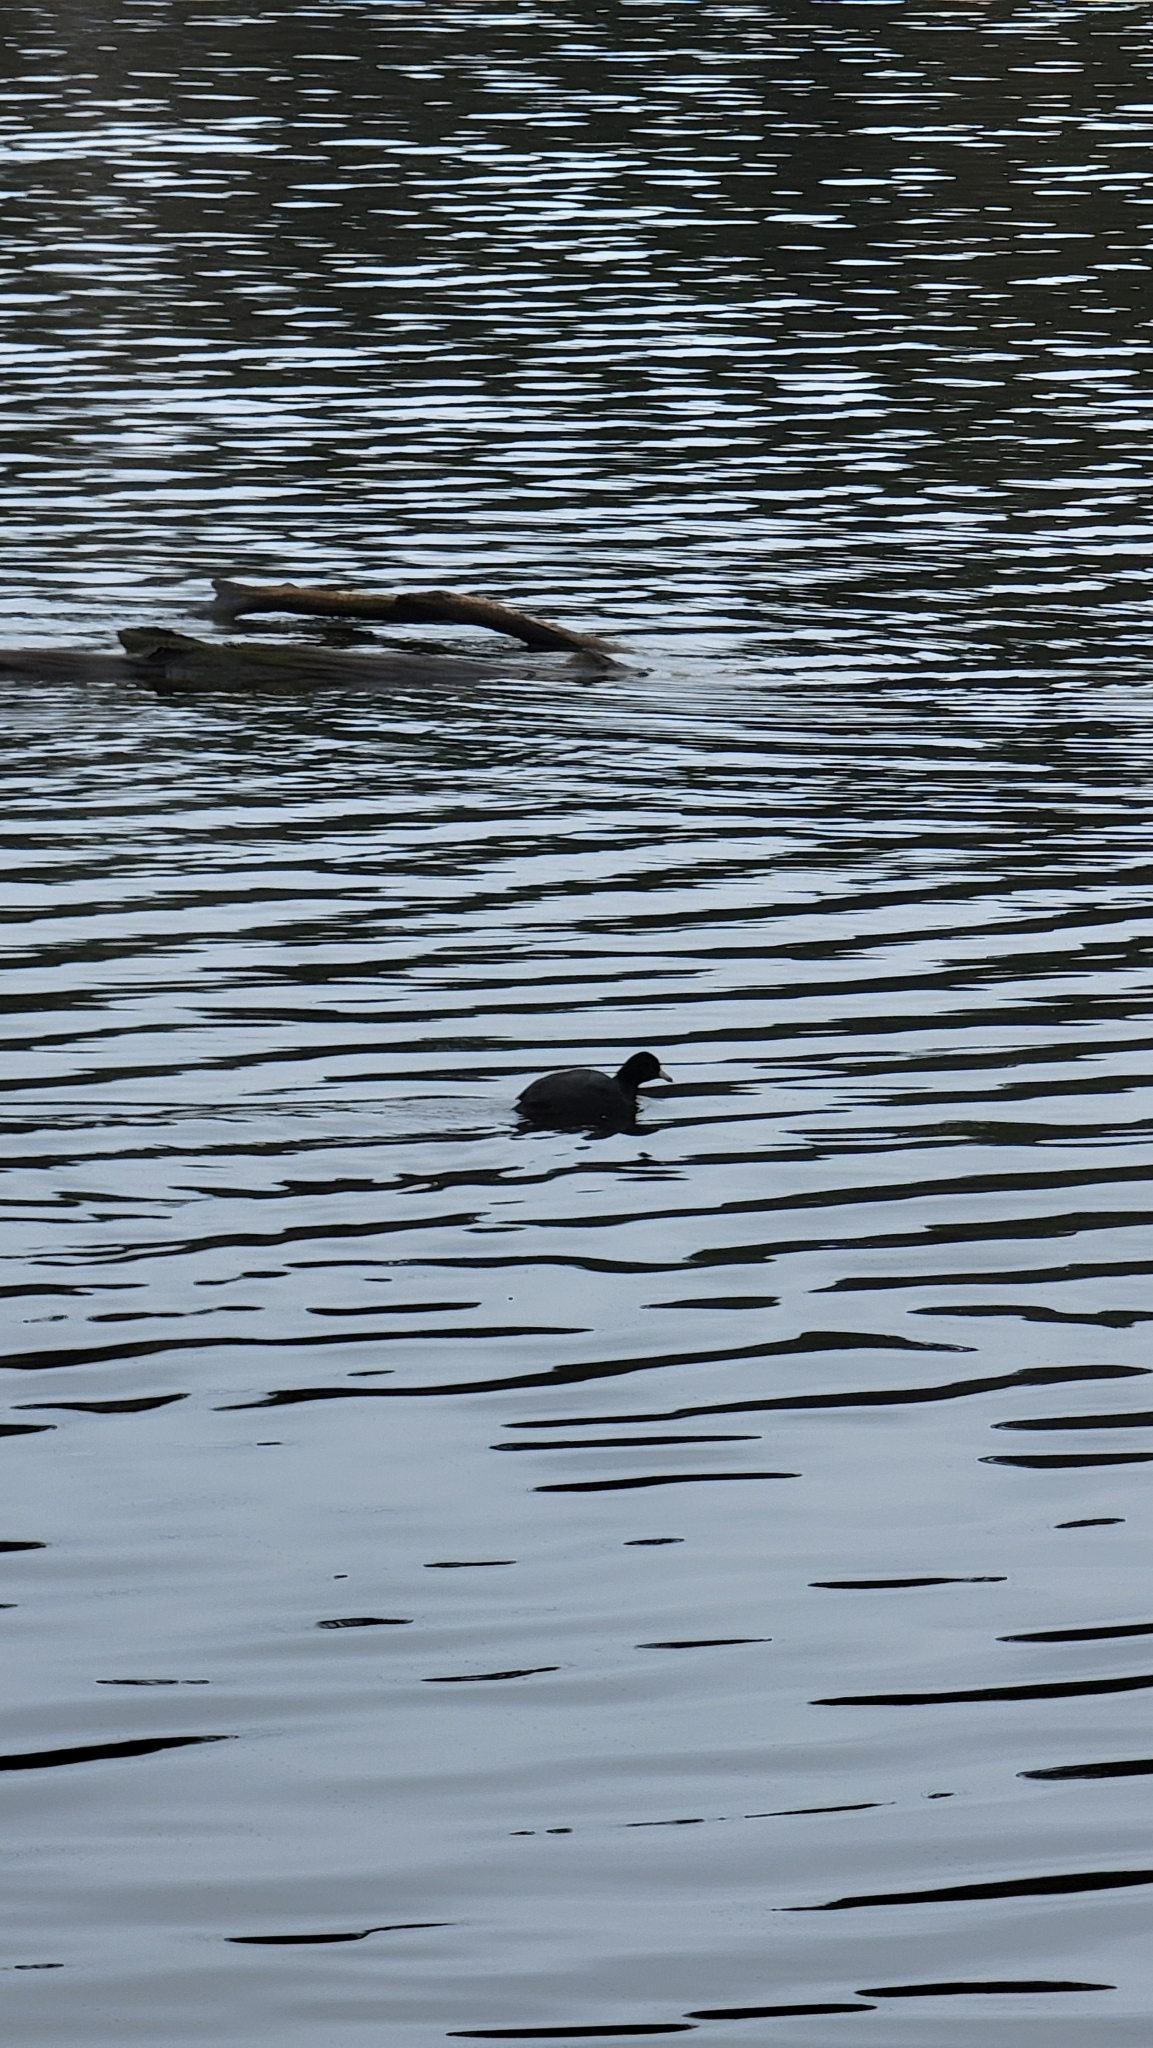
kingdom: Animalia
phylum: Chordata
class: Aves
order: Gruiformes
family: Rallidae
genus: Fulica
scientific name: Fulica americana
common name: American coot
